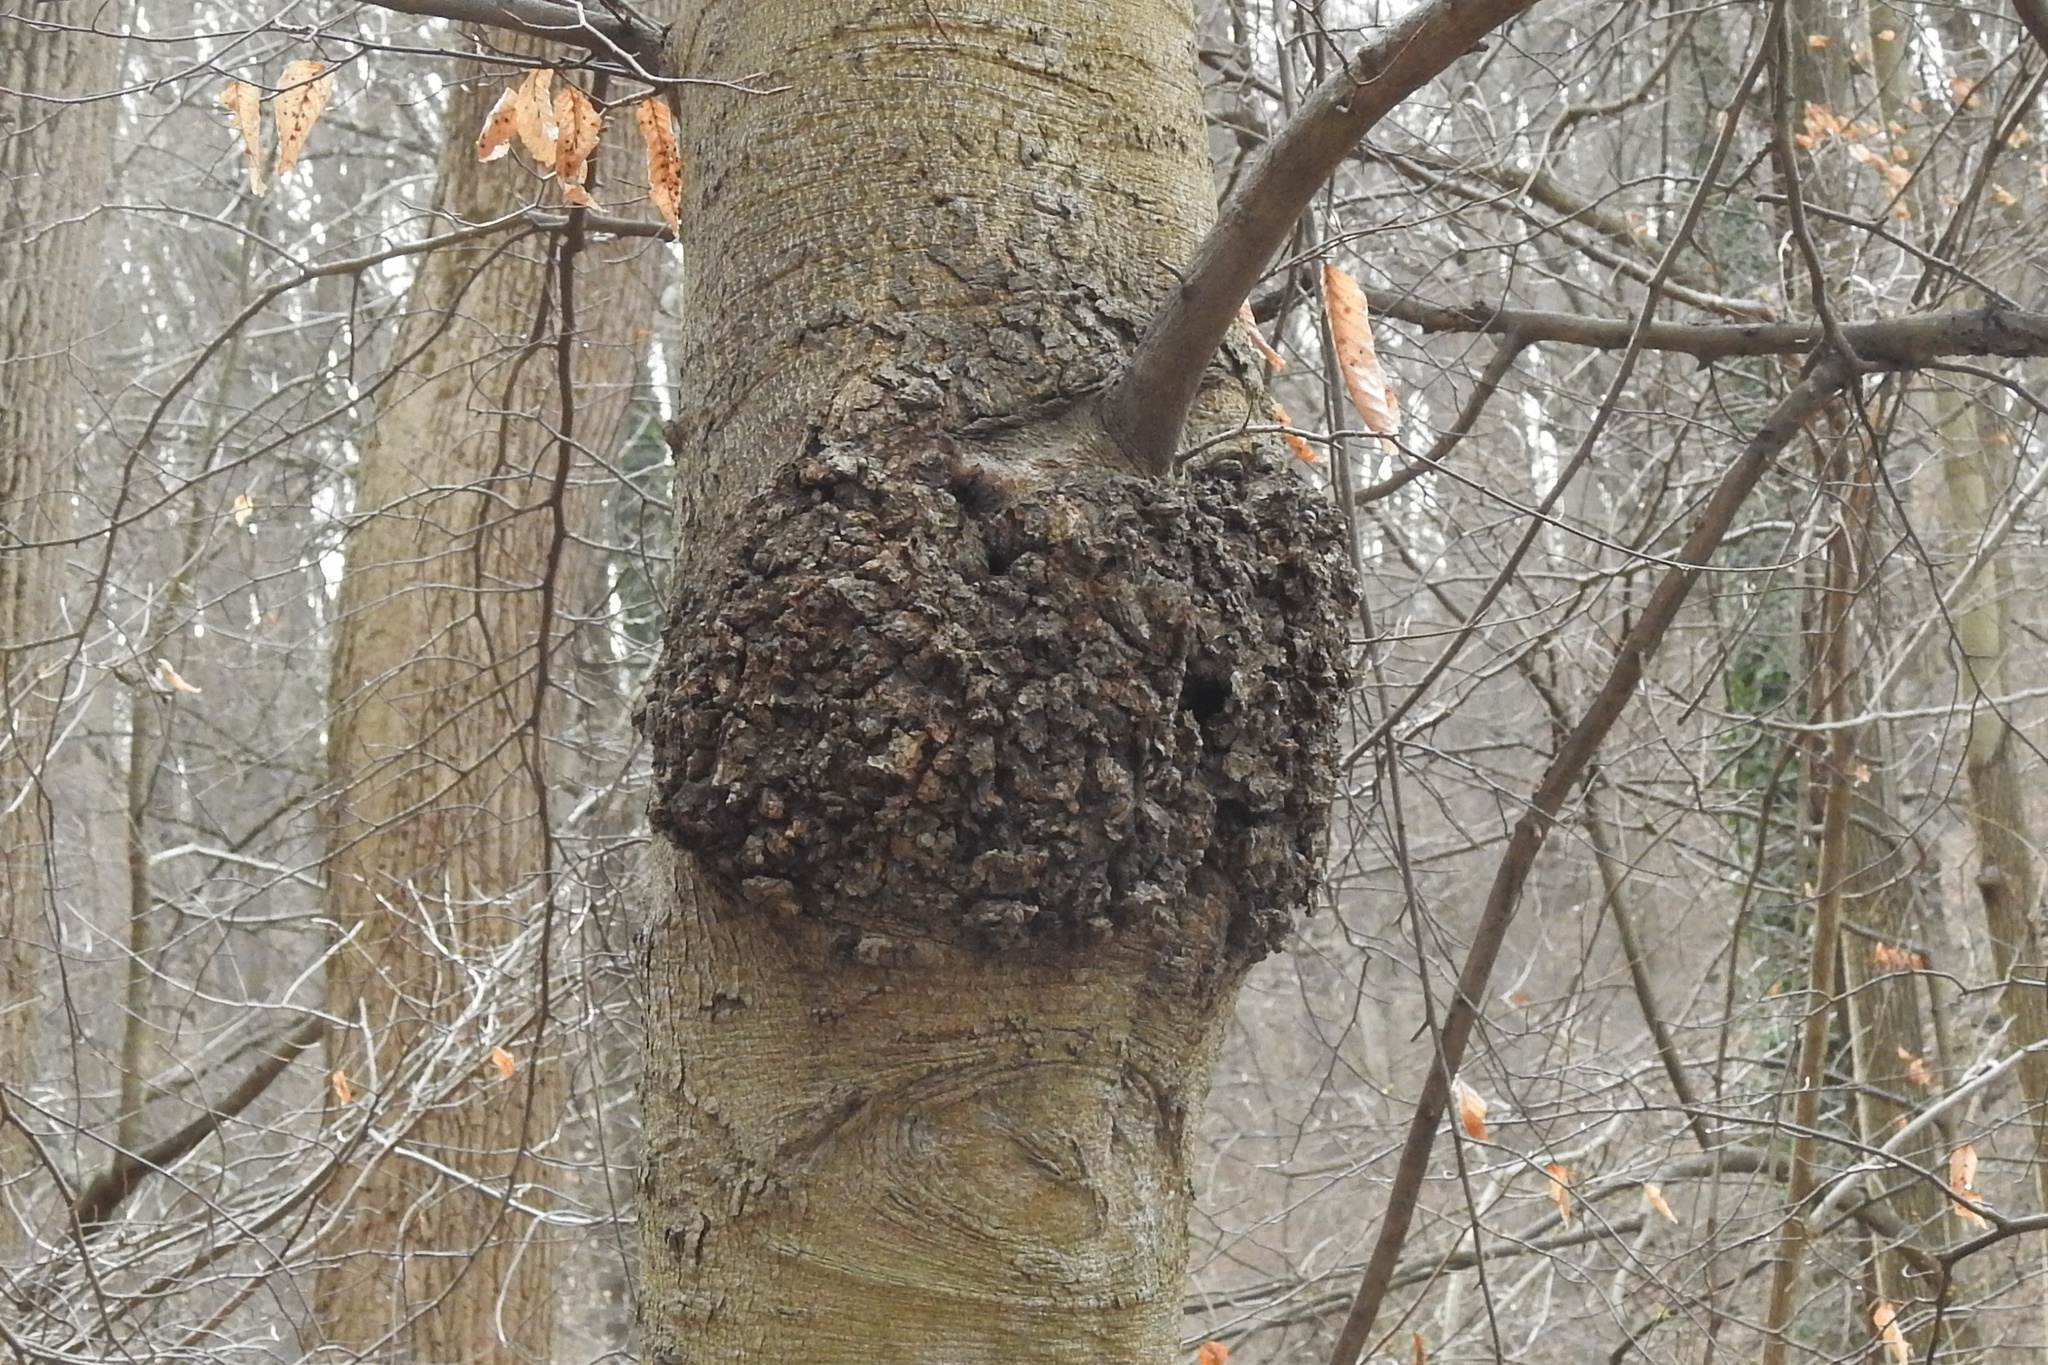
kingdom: Bacteria
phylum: Proteobacteria
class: Alphaproteobacteria
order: Rhizobiales
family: Rhizobiaceae
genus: Rhizobium
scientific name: Rhizobium Agrobacterium radiobacter
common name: Bacterial crown gall
